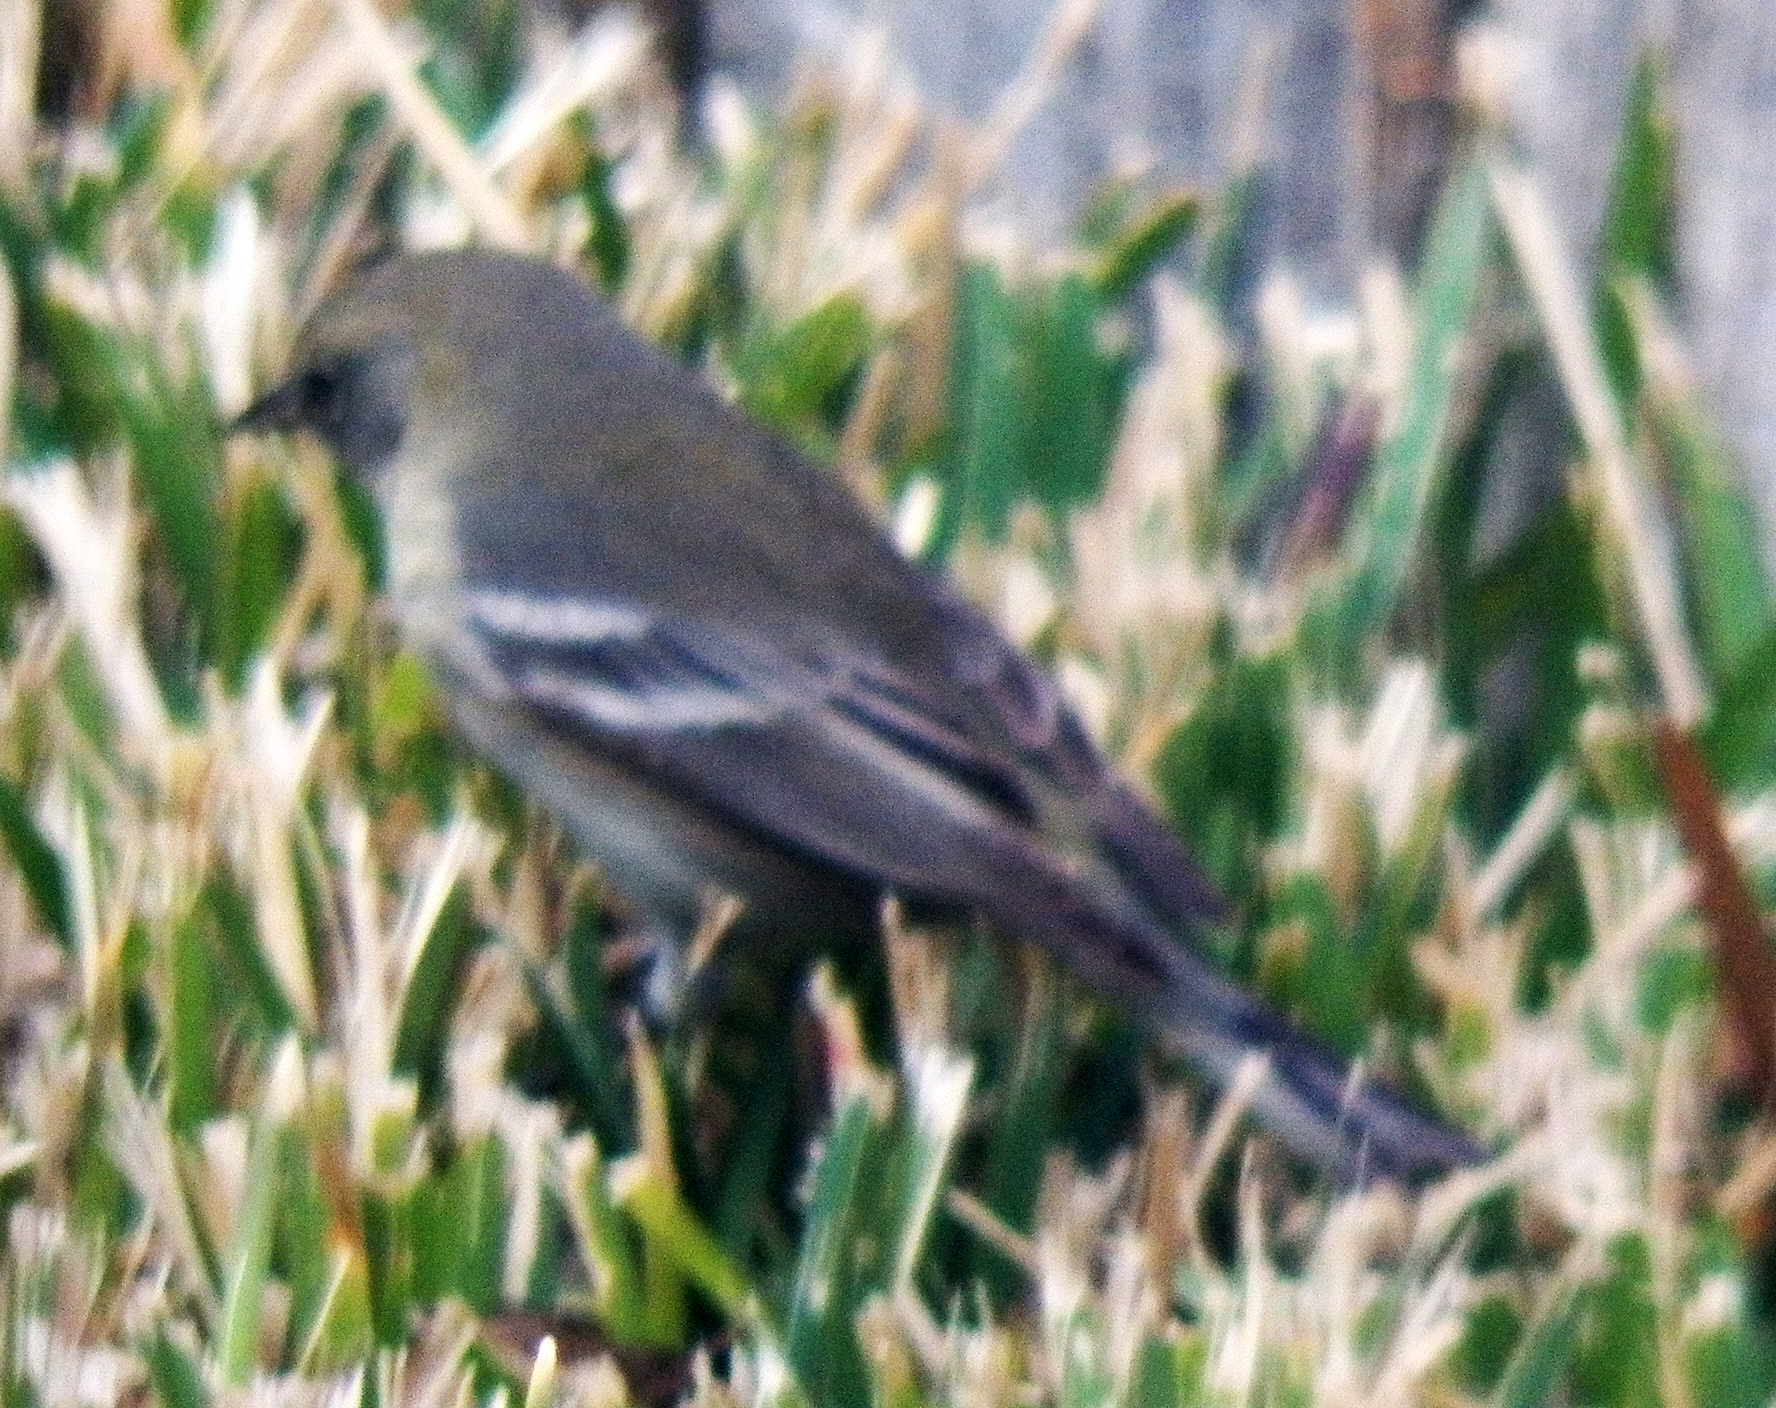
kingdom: Animalia
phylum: Chordata
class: Aves
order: Passeriformes
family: Parulidae
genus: Setophaga
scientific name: Setophaga pinus
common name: Pine warbler
